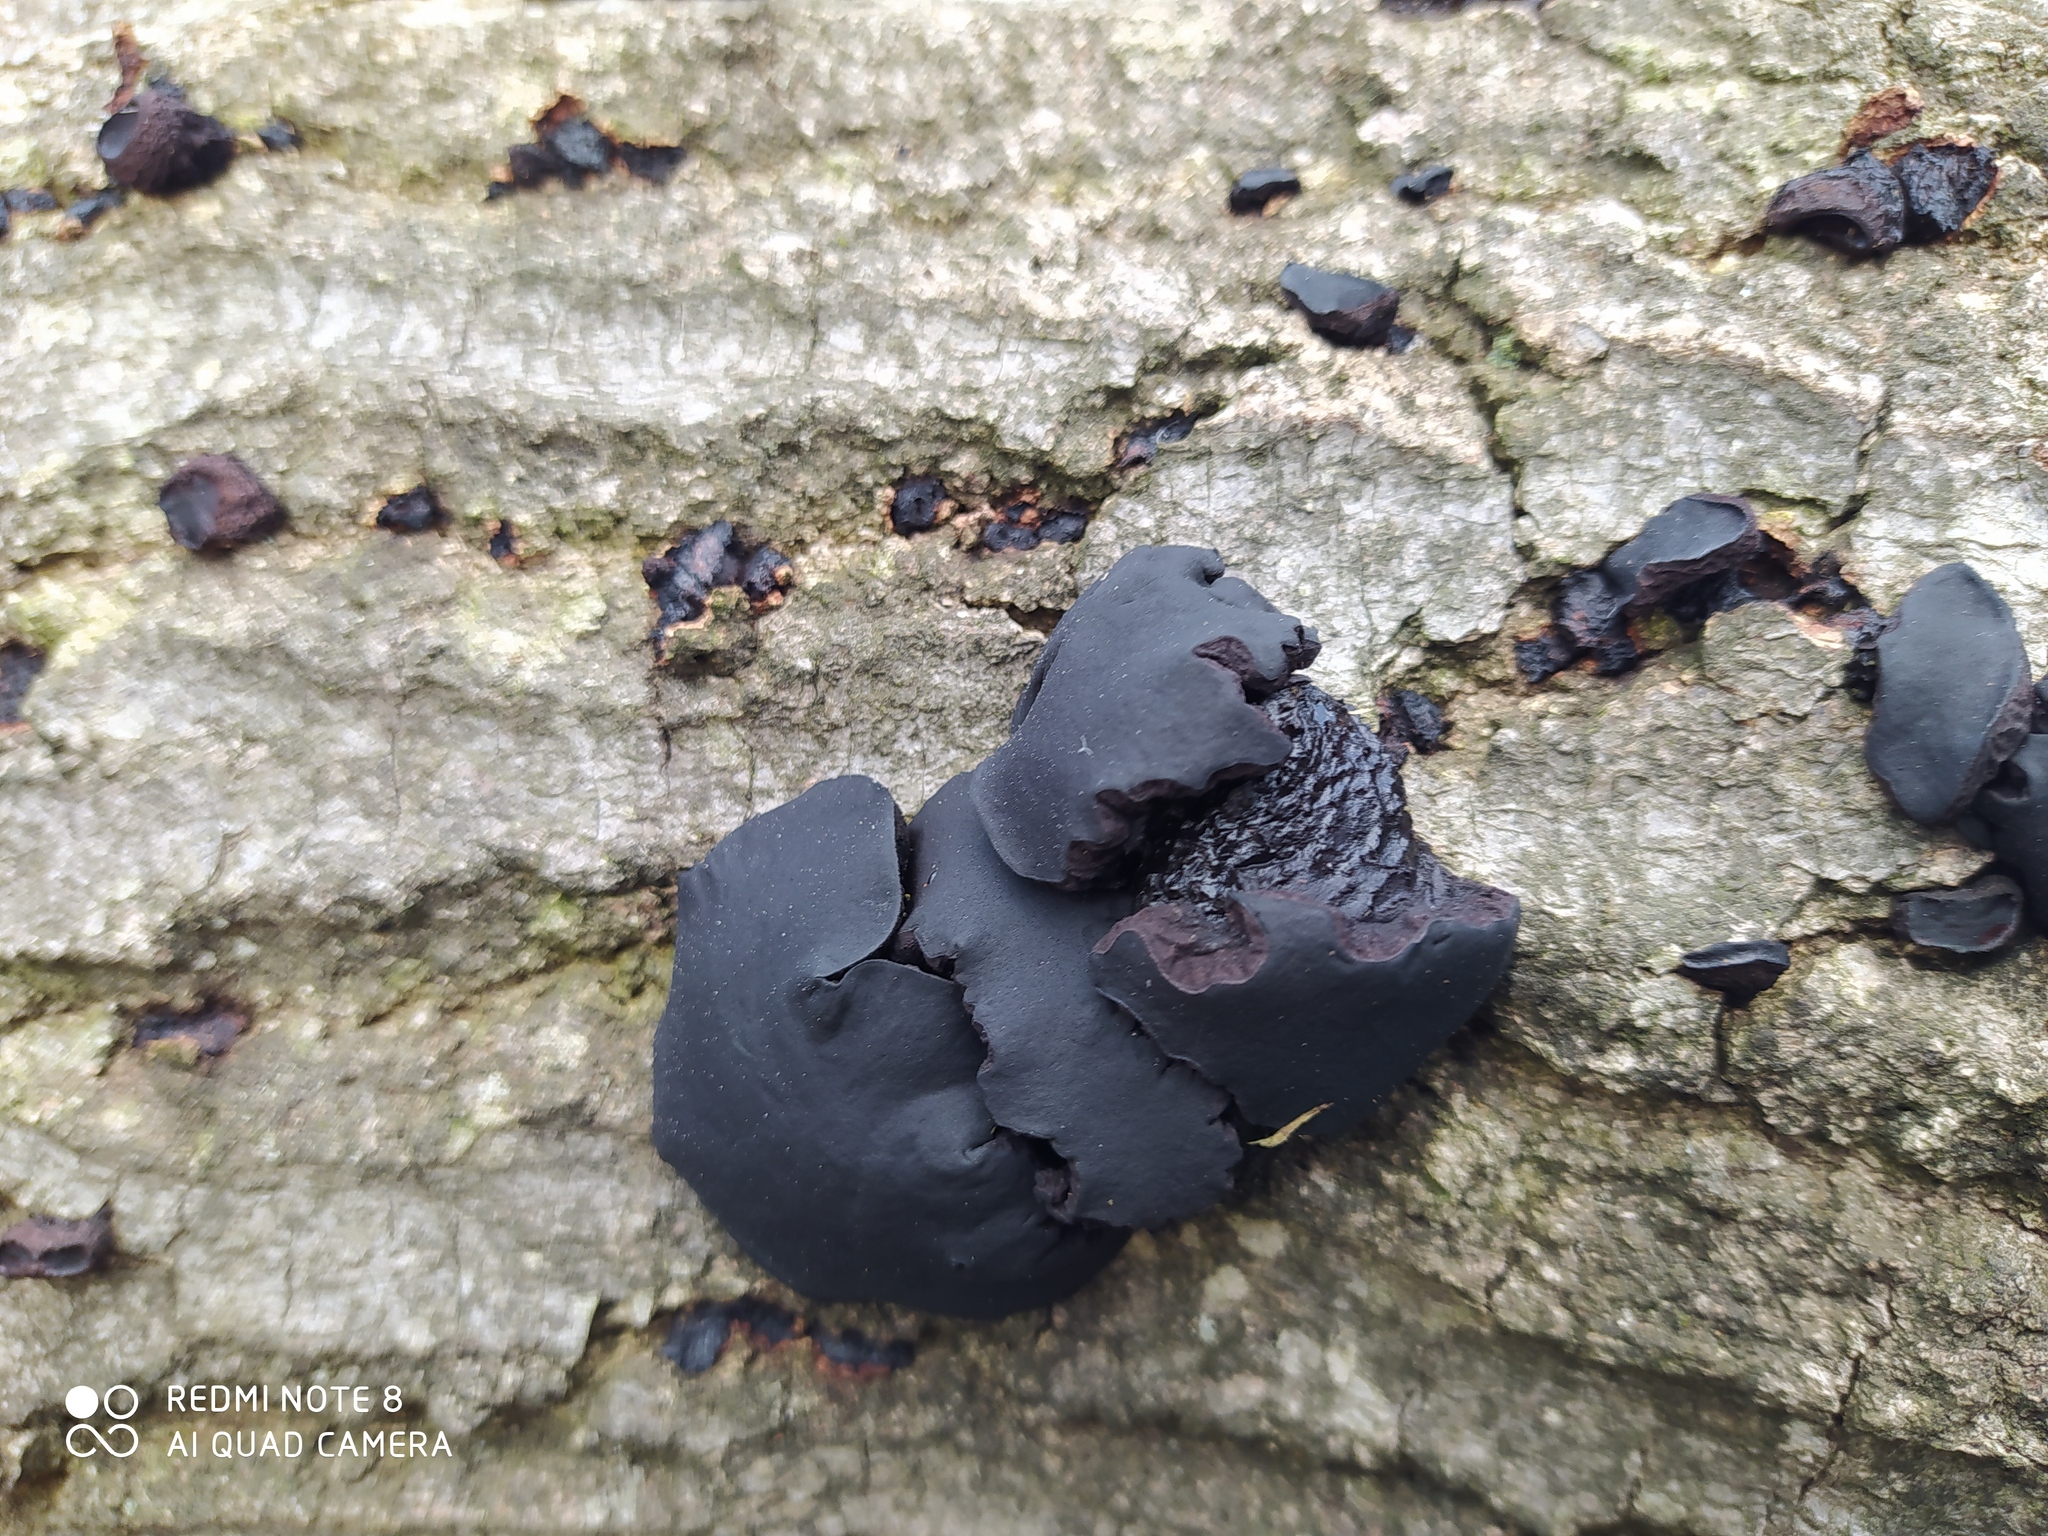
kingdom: Fungi
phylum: Ascomycota
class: Leotiomycetes
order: Phacidiales
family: Phacidiaceae
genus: Bulgaria
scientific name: Bulgaria inquinans
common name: Black bulgar
